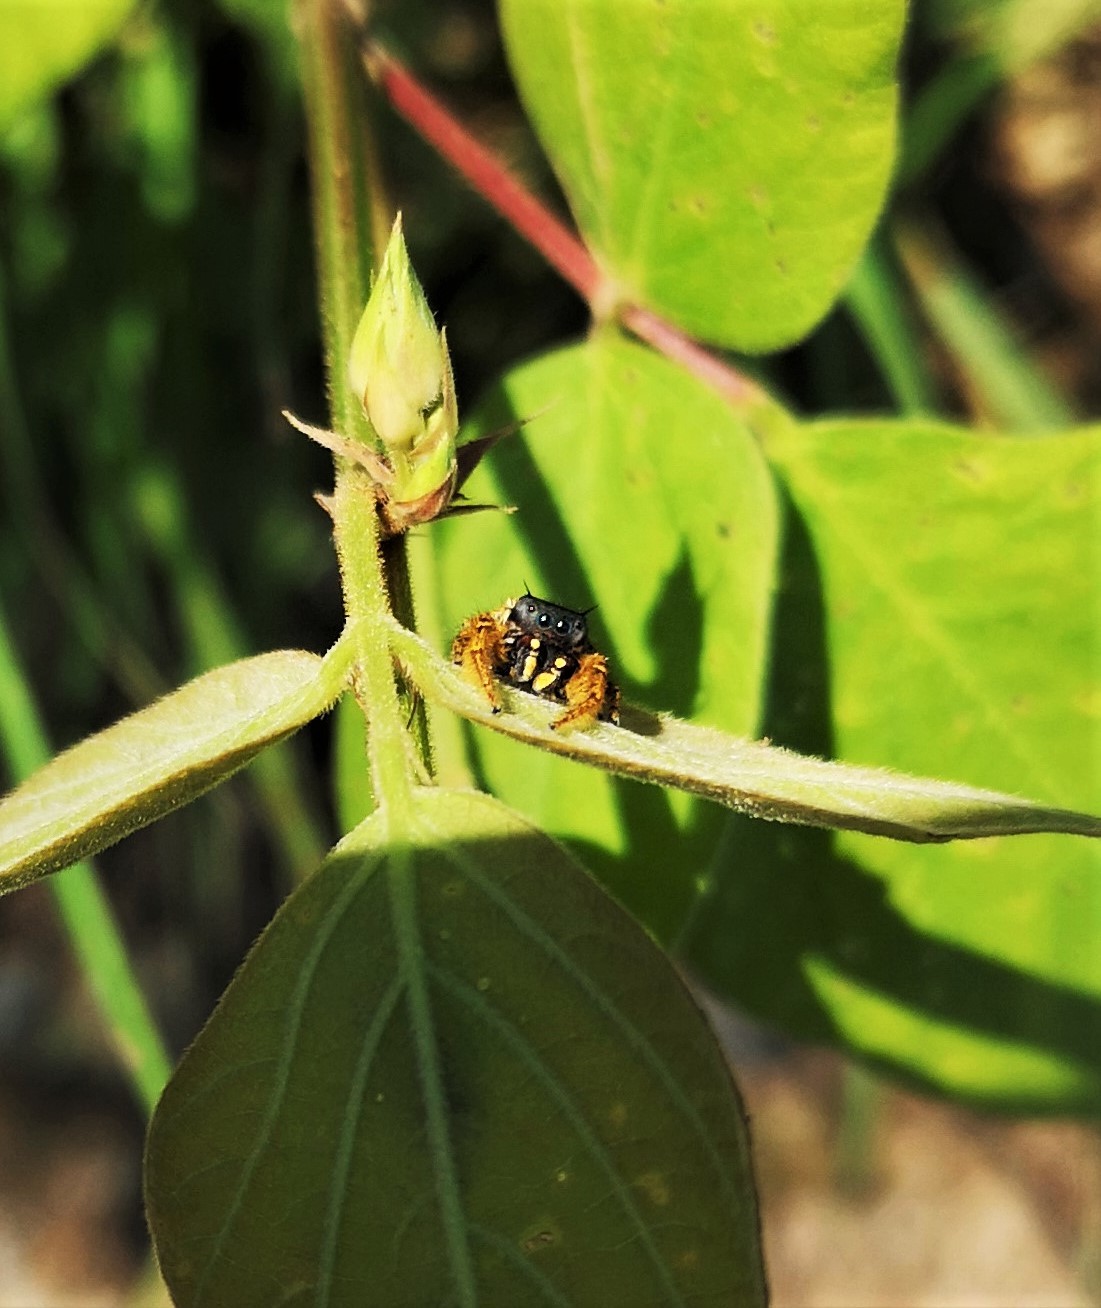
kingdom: Animalia
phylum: Arthropoda
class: Arachnida
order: Araneae
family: Salticidae
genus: Phidippus
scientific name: Phidippus arizonensis
